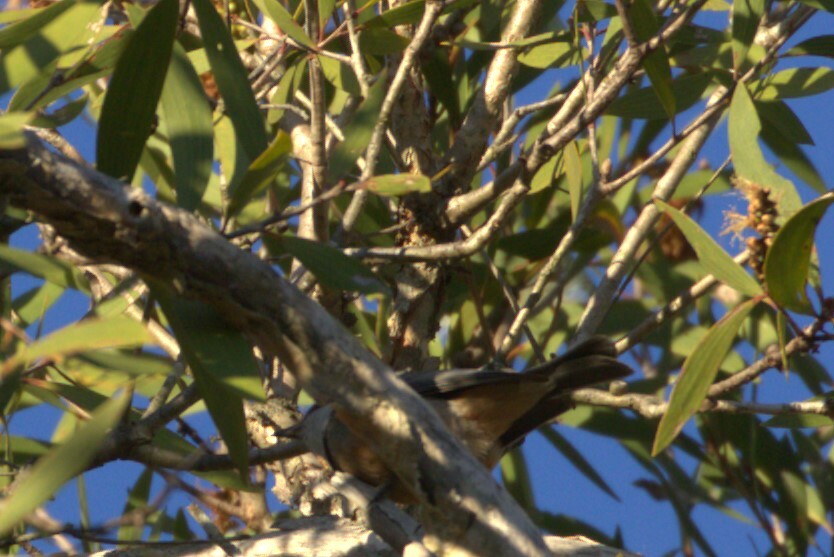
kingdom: Animalia
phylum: Chordata
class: Aves
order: Passeriformes
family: Pachycephalidae
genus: Pachycephala
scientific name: Pachycephala rufiventris
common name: Rufous whistler
